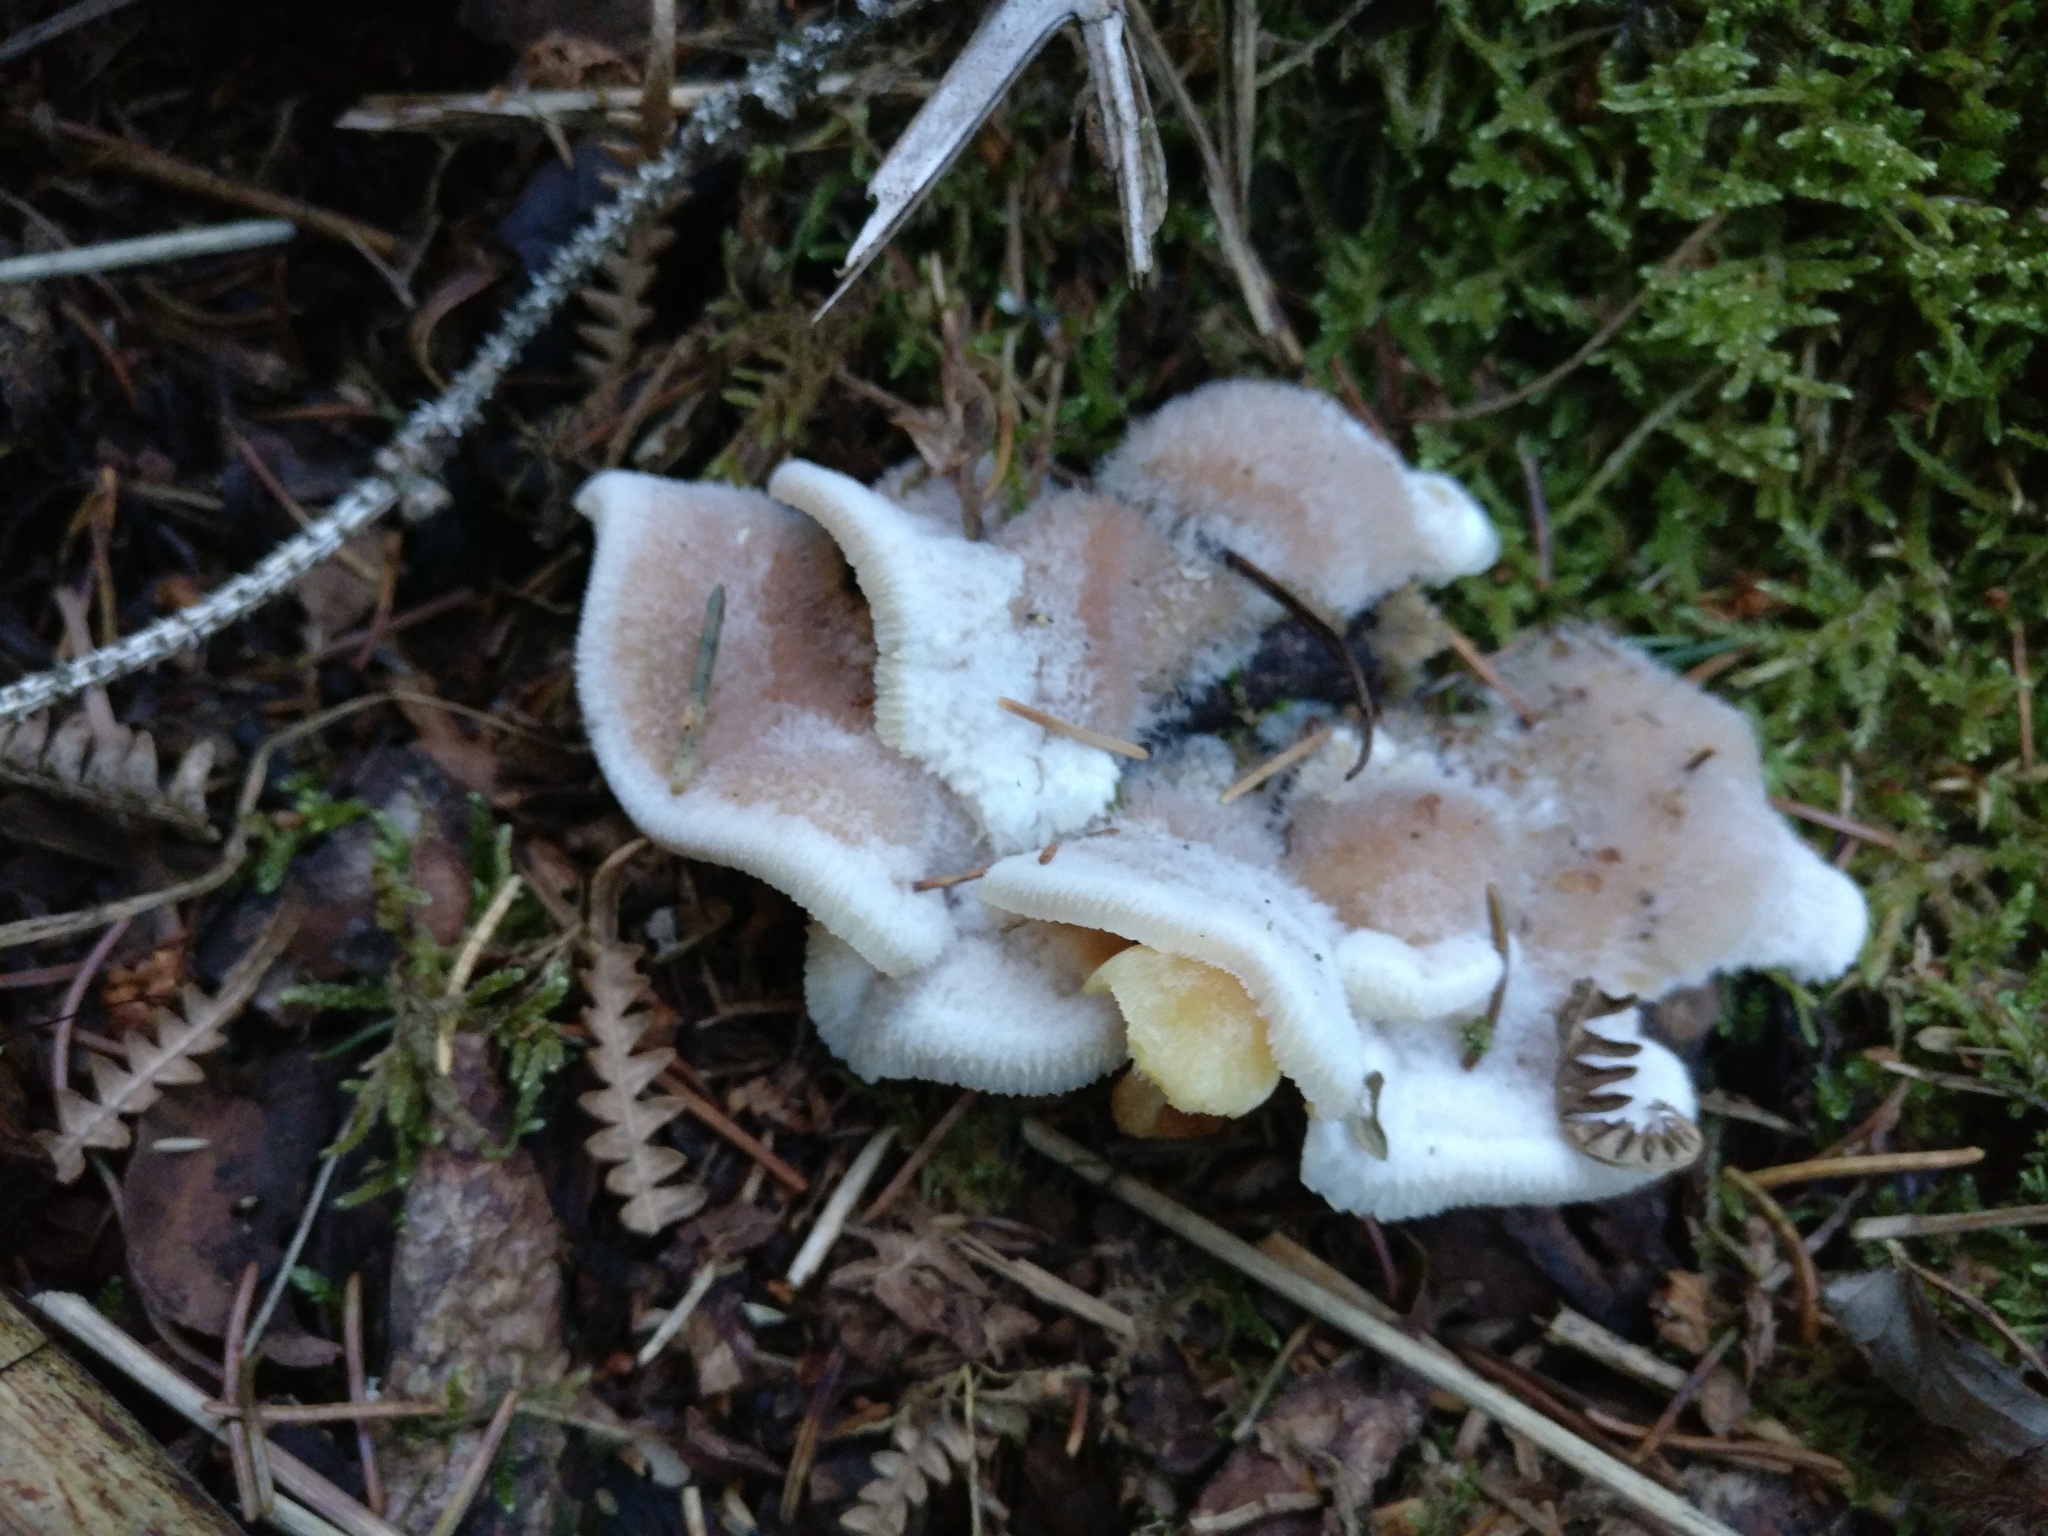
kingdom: Fungi
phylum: Basidiomycota
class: Agaricomycetes
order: Polyporales
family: Meruliaceae
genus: Phlebia
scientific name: Phlebia tremellosa
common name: Jelly rot
